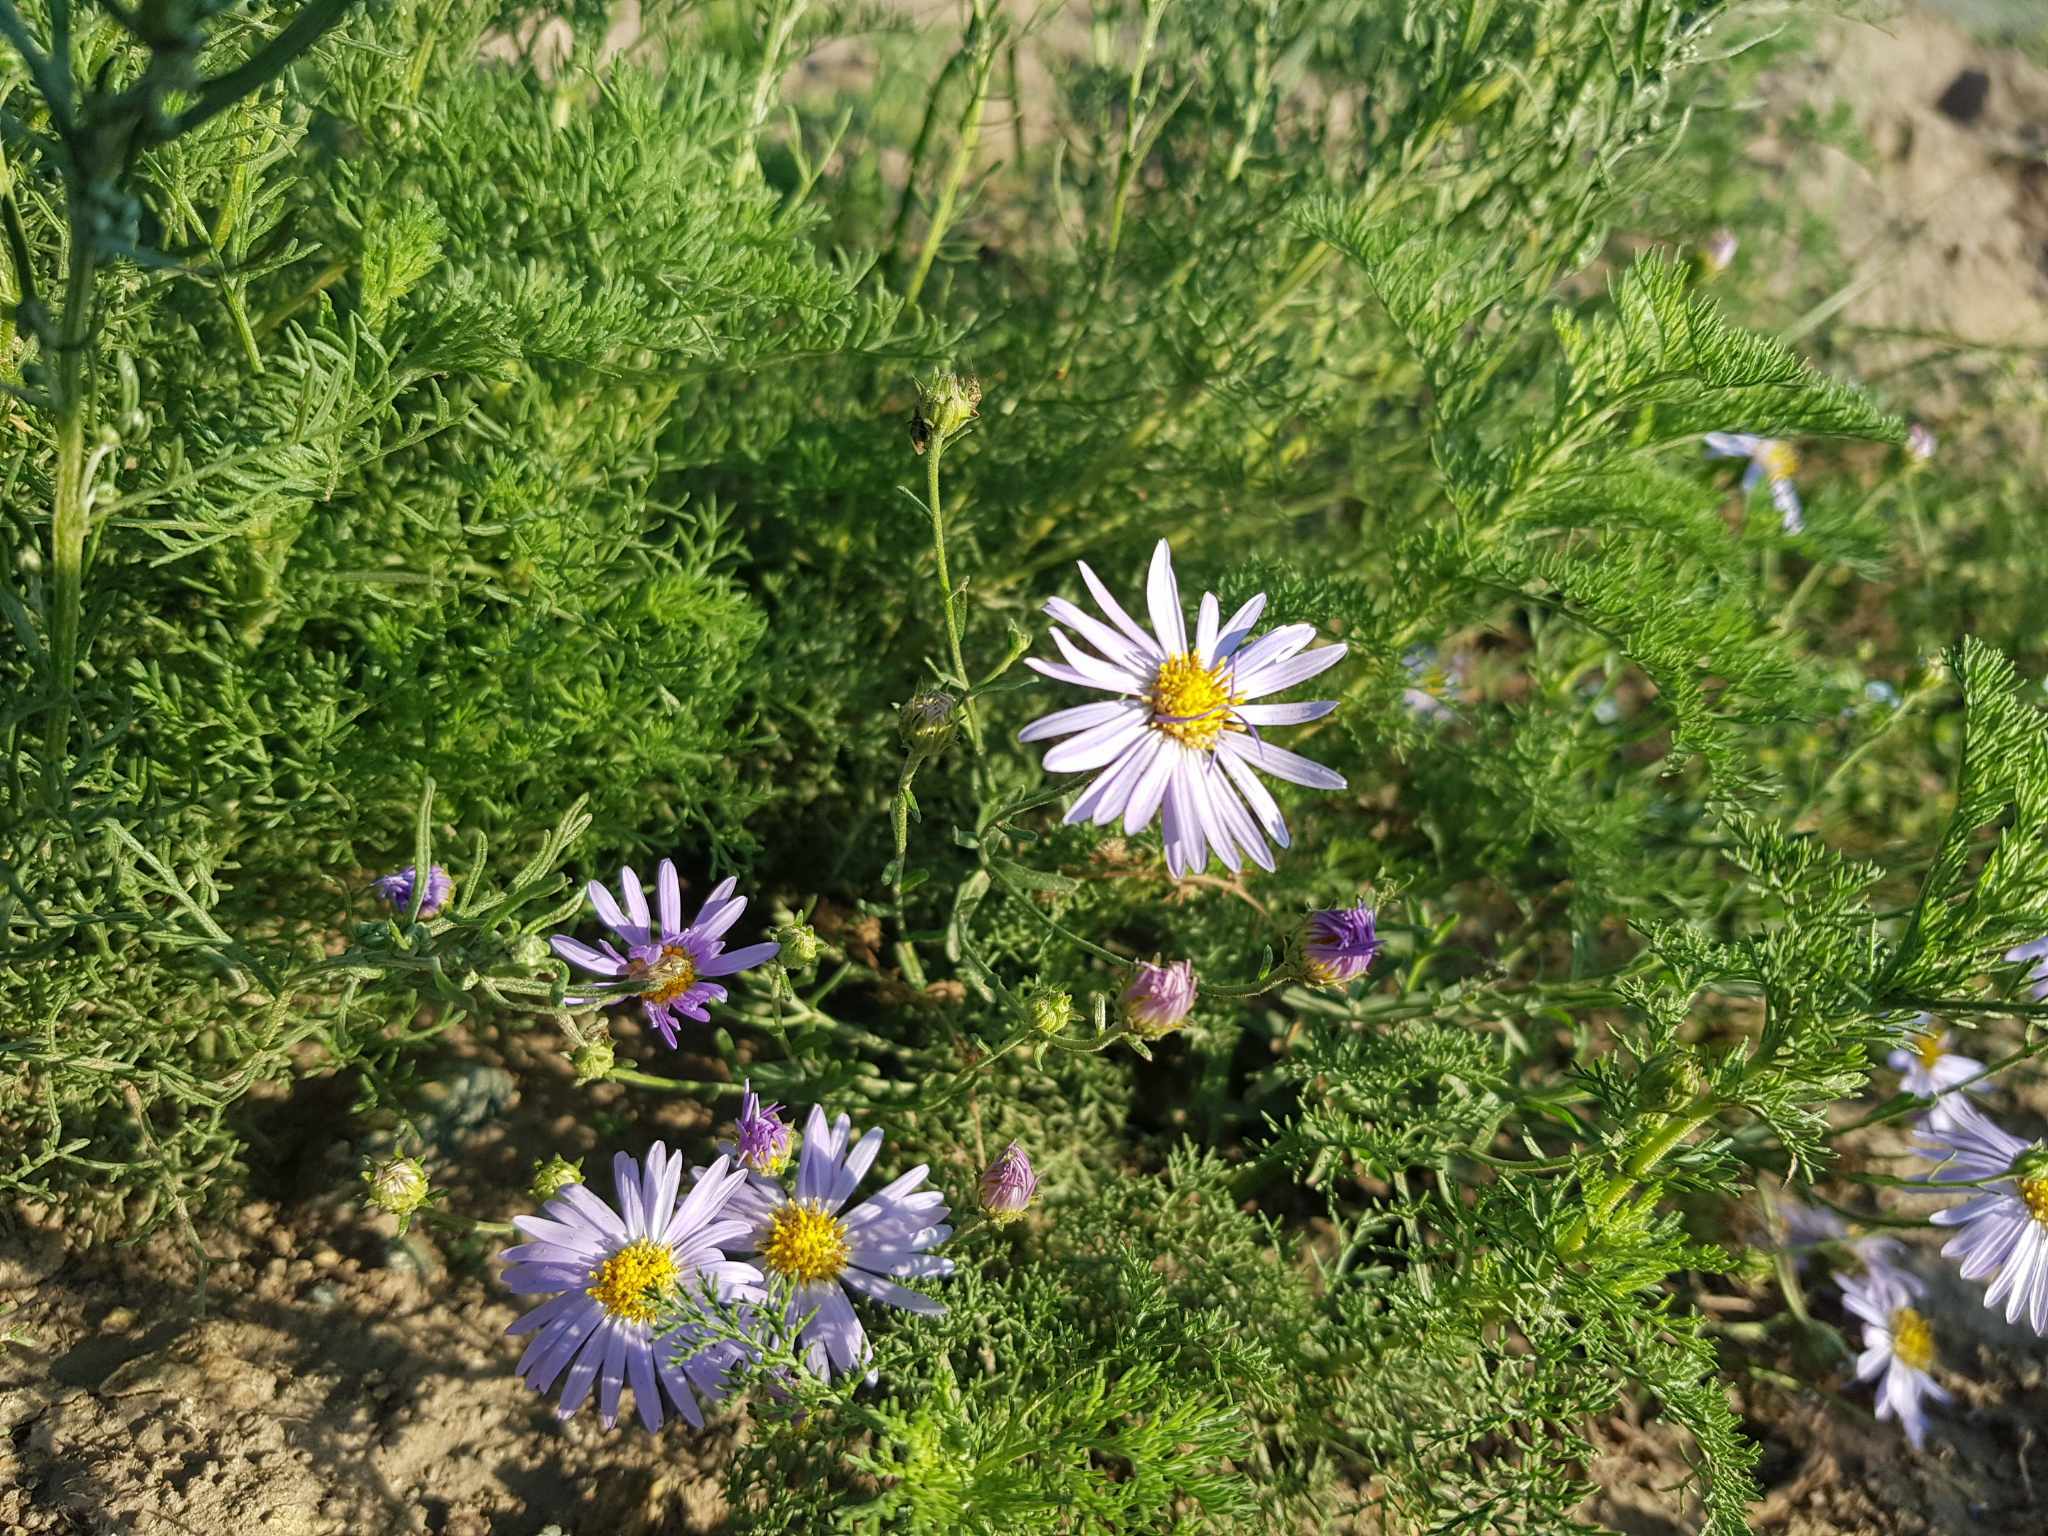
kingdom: Plantae
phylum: Tracheophyta
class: Magnoliopsida
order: Asterales
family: Asteraceae
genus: Heteropappus
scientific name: Heteropappus altaicus
